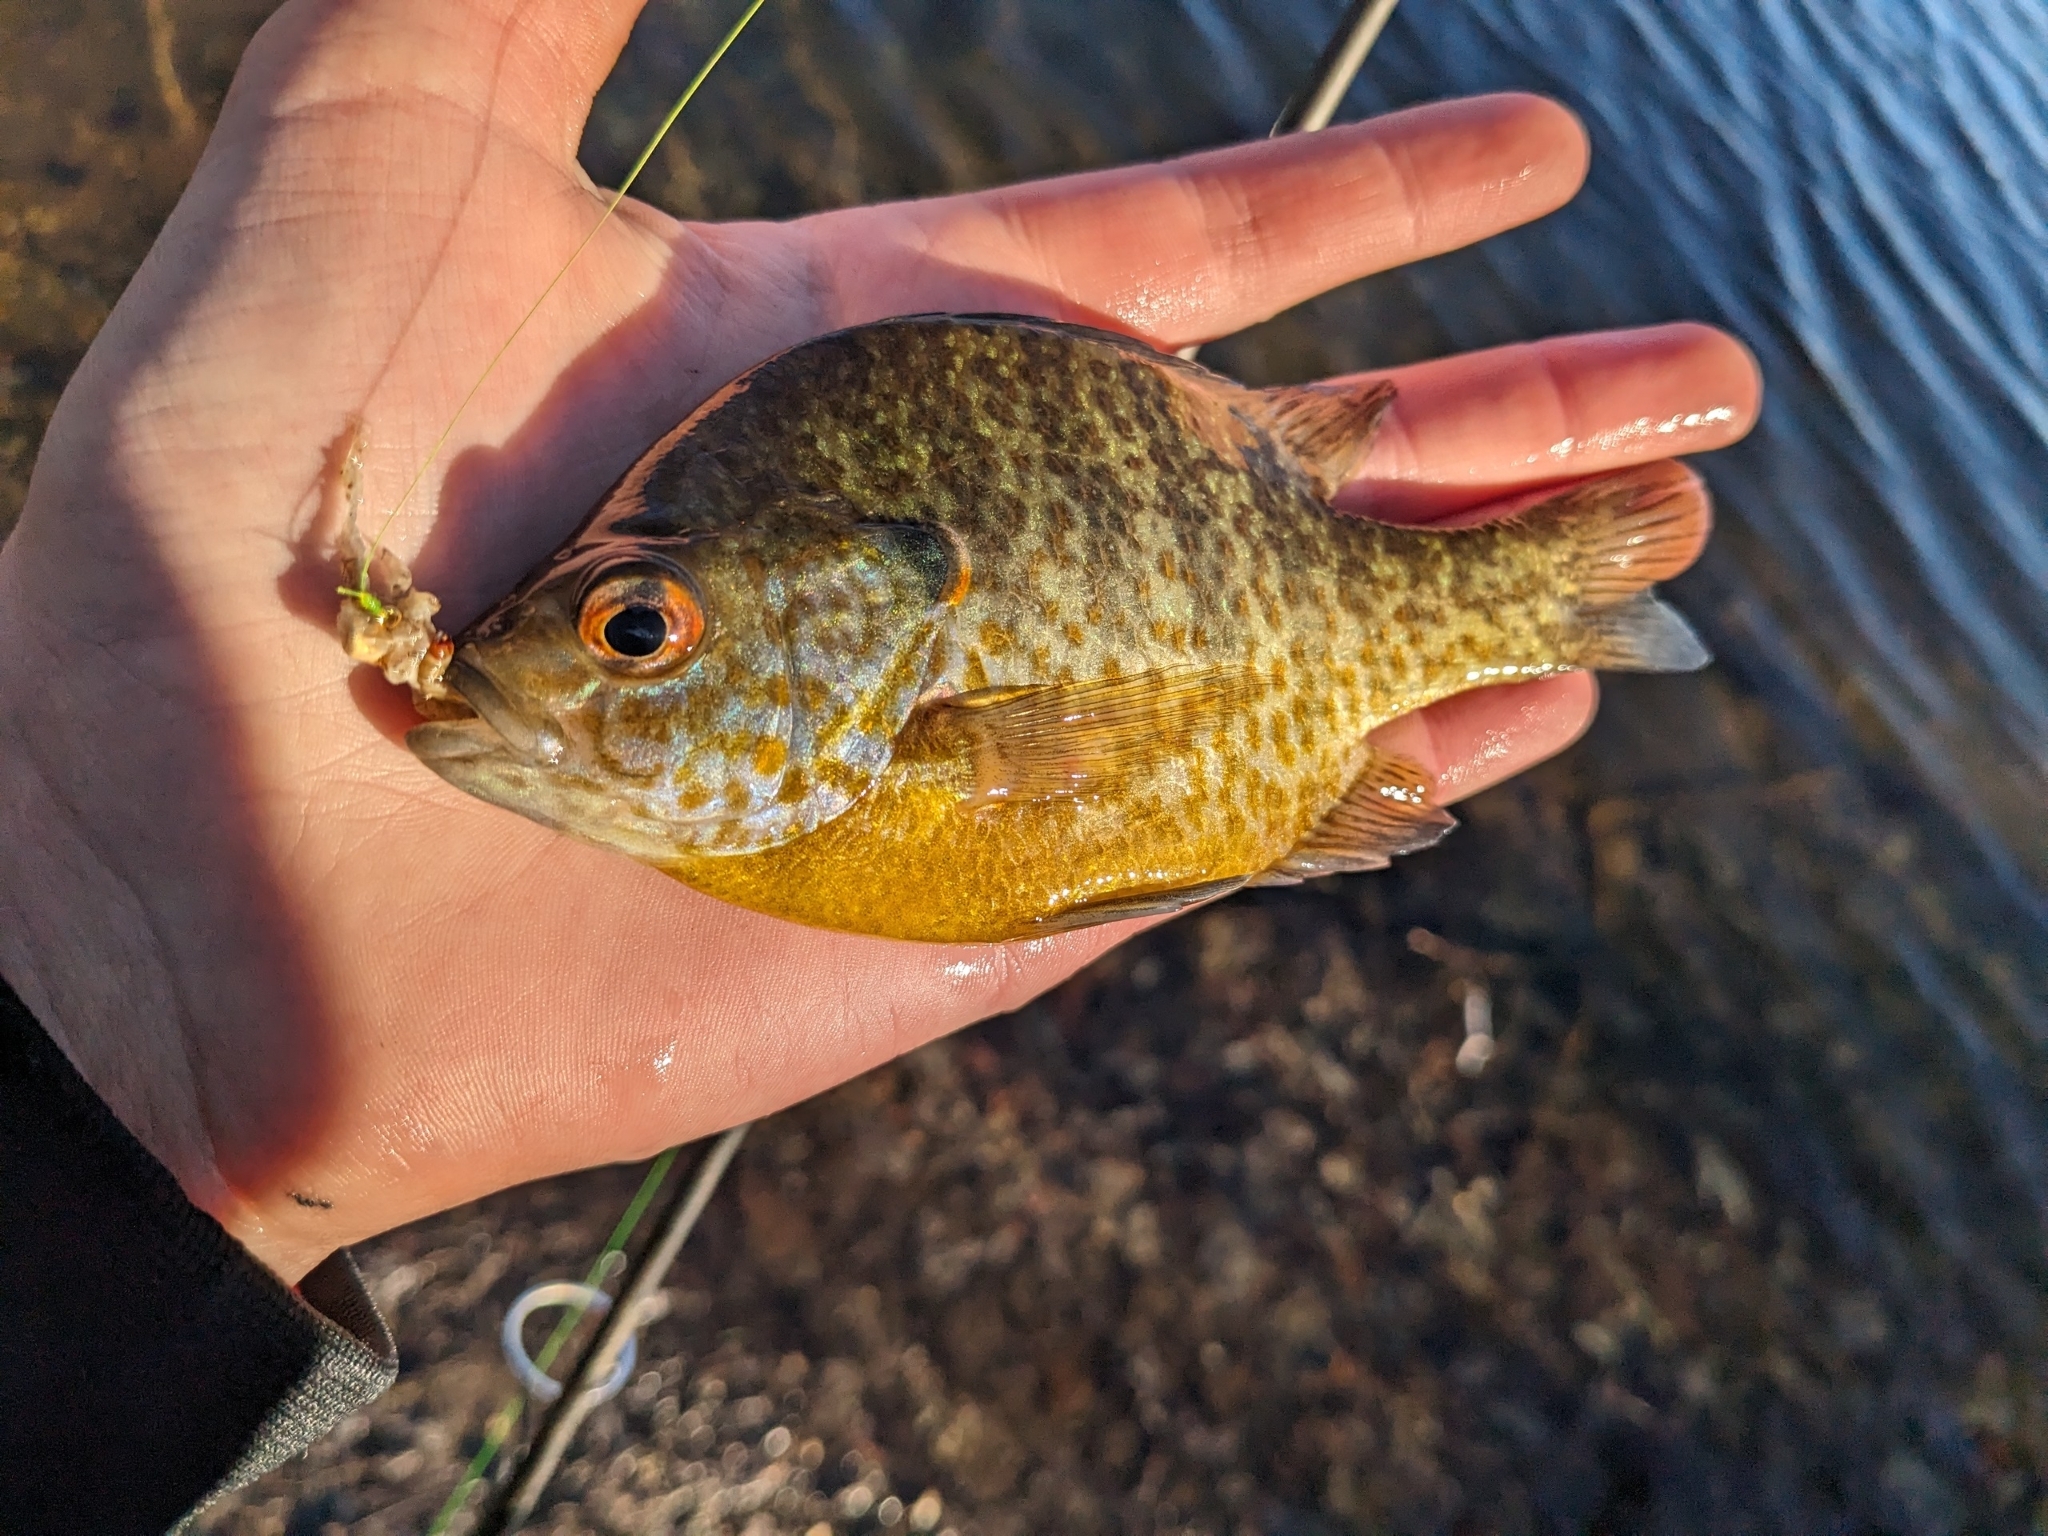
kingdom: Animalia
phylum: Chordata
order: Perciformes
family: Centrarchidae
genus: Lepomis
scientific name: Lepomis
